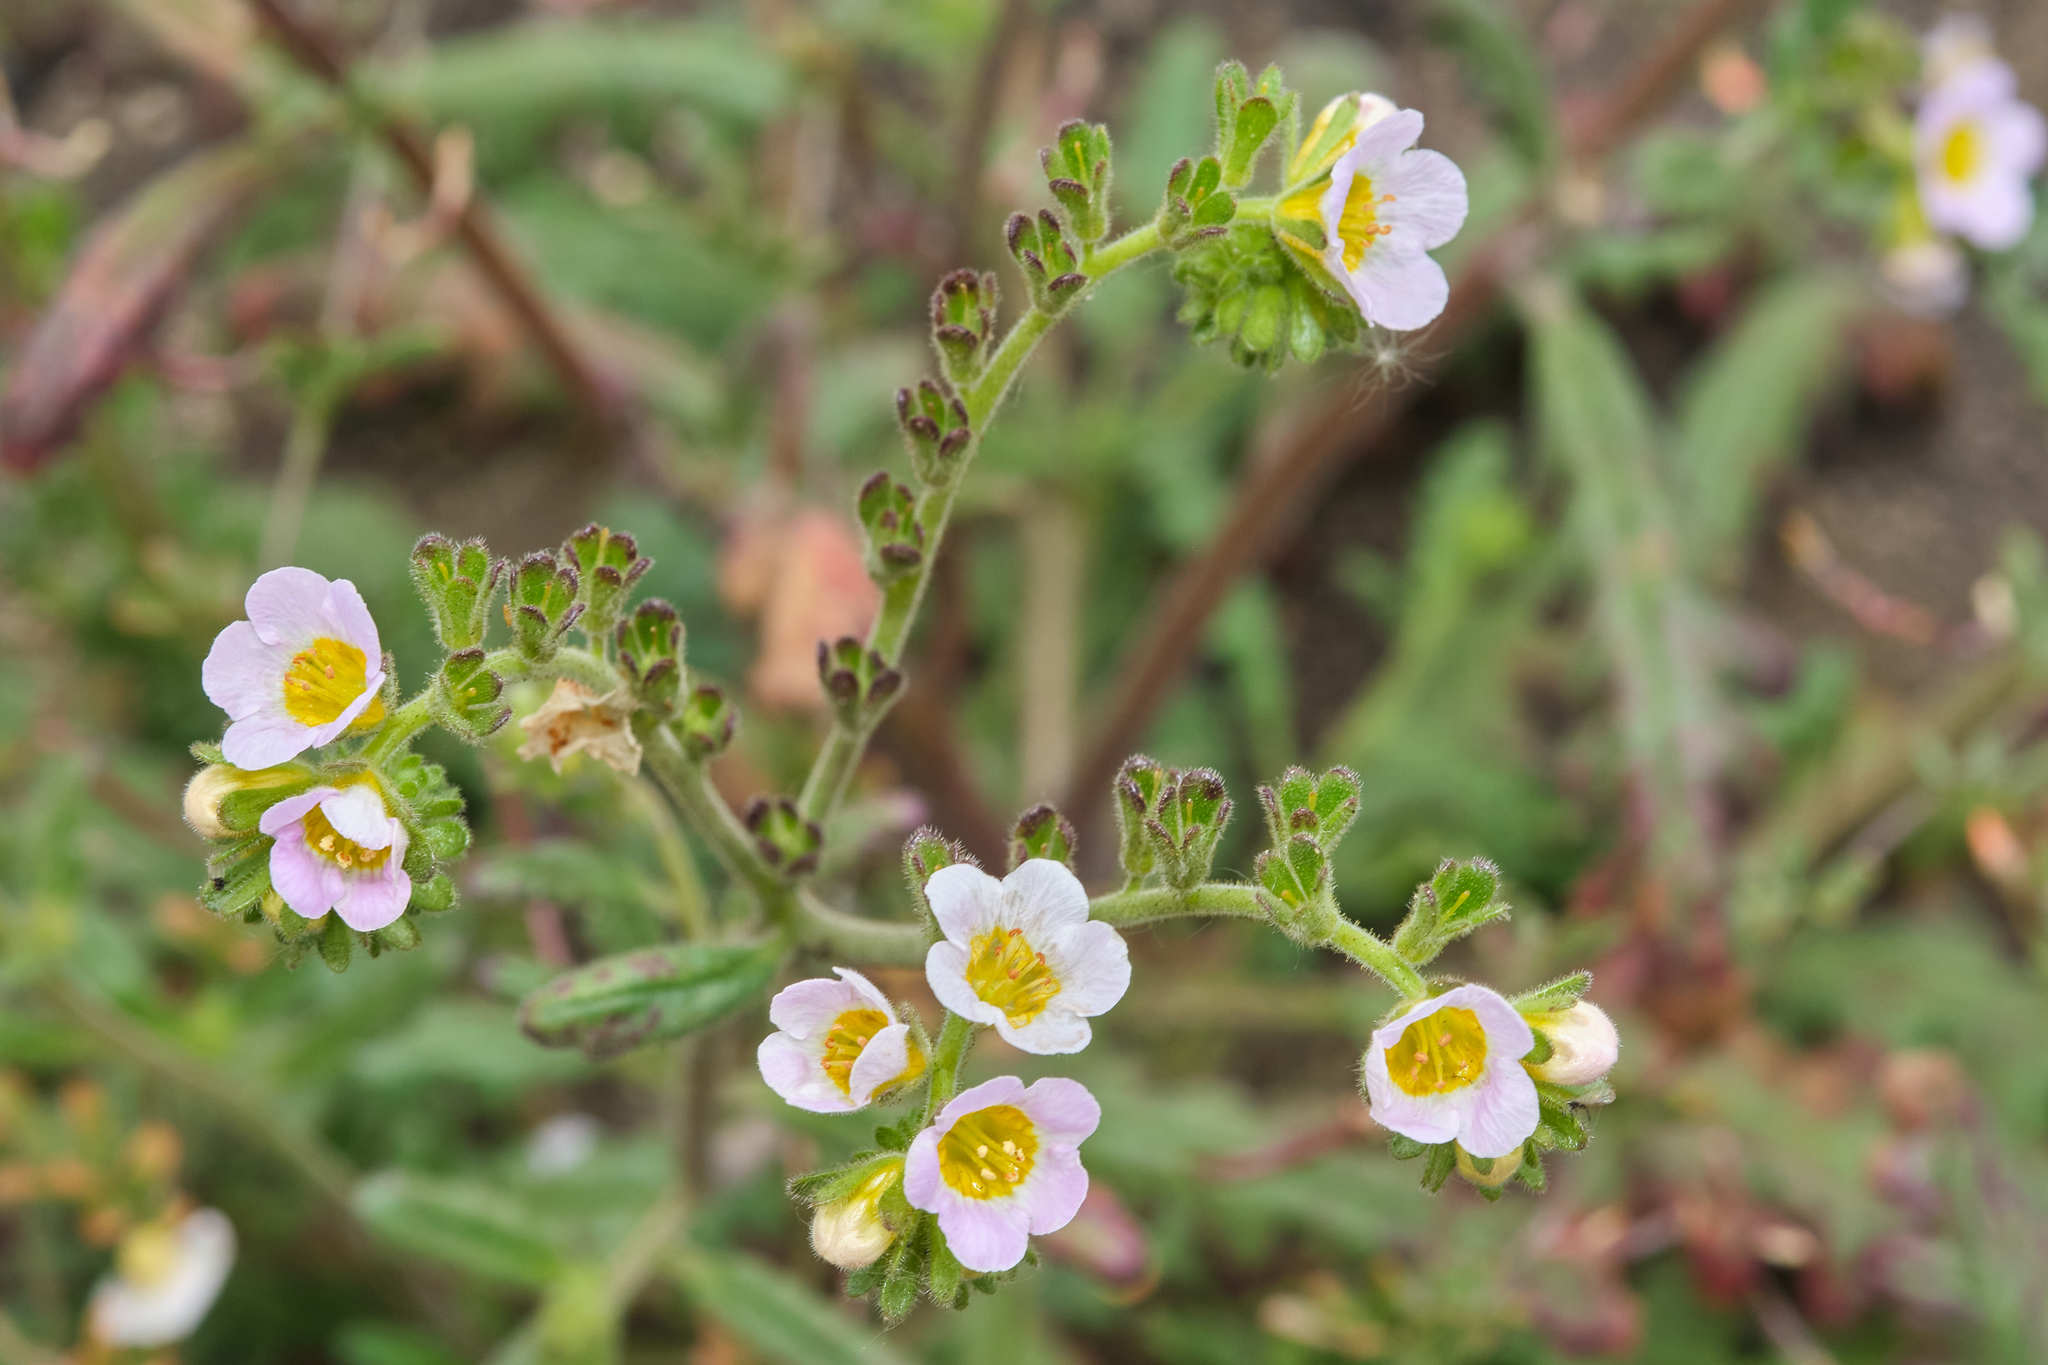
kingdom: Plantae
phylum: Tracheophyta
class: Magnoliopsida
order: Boraginales
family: Hydrophyllaceae
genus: Phacelia
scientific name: Phacelia brachyloba
